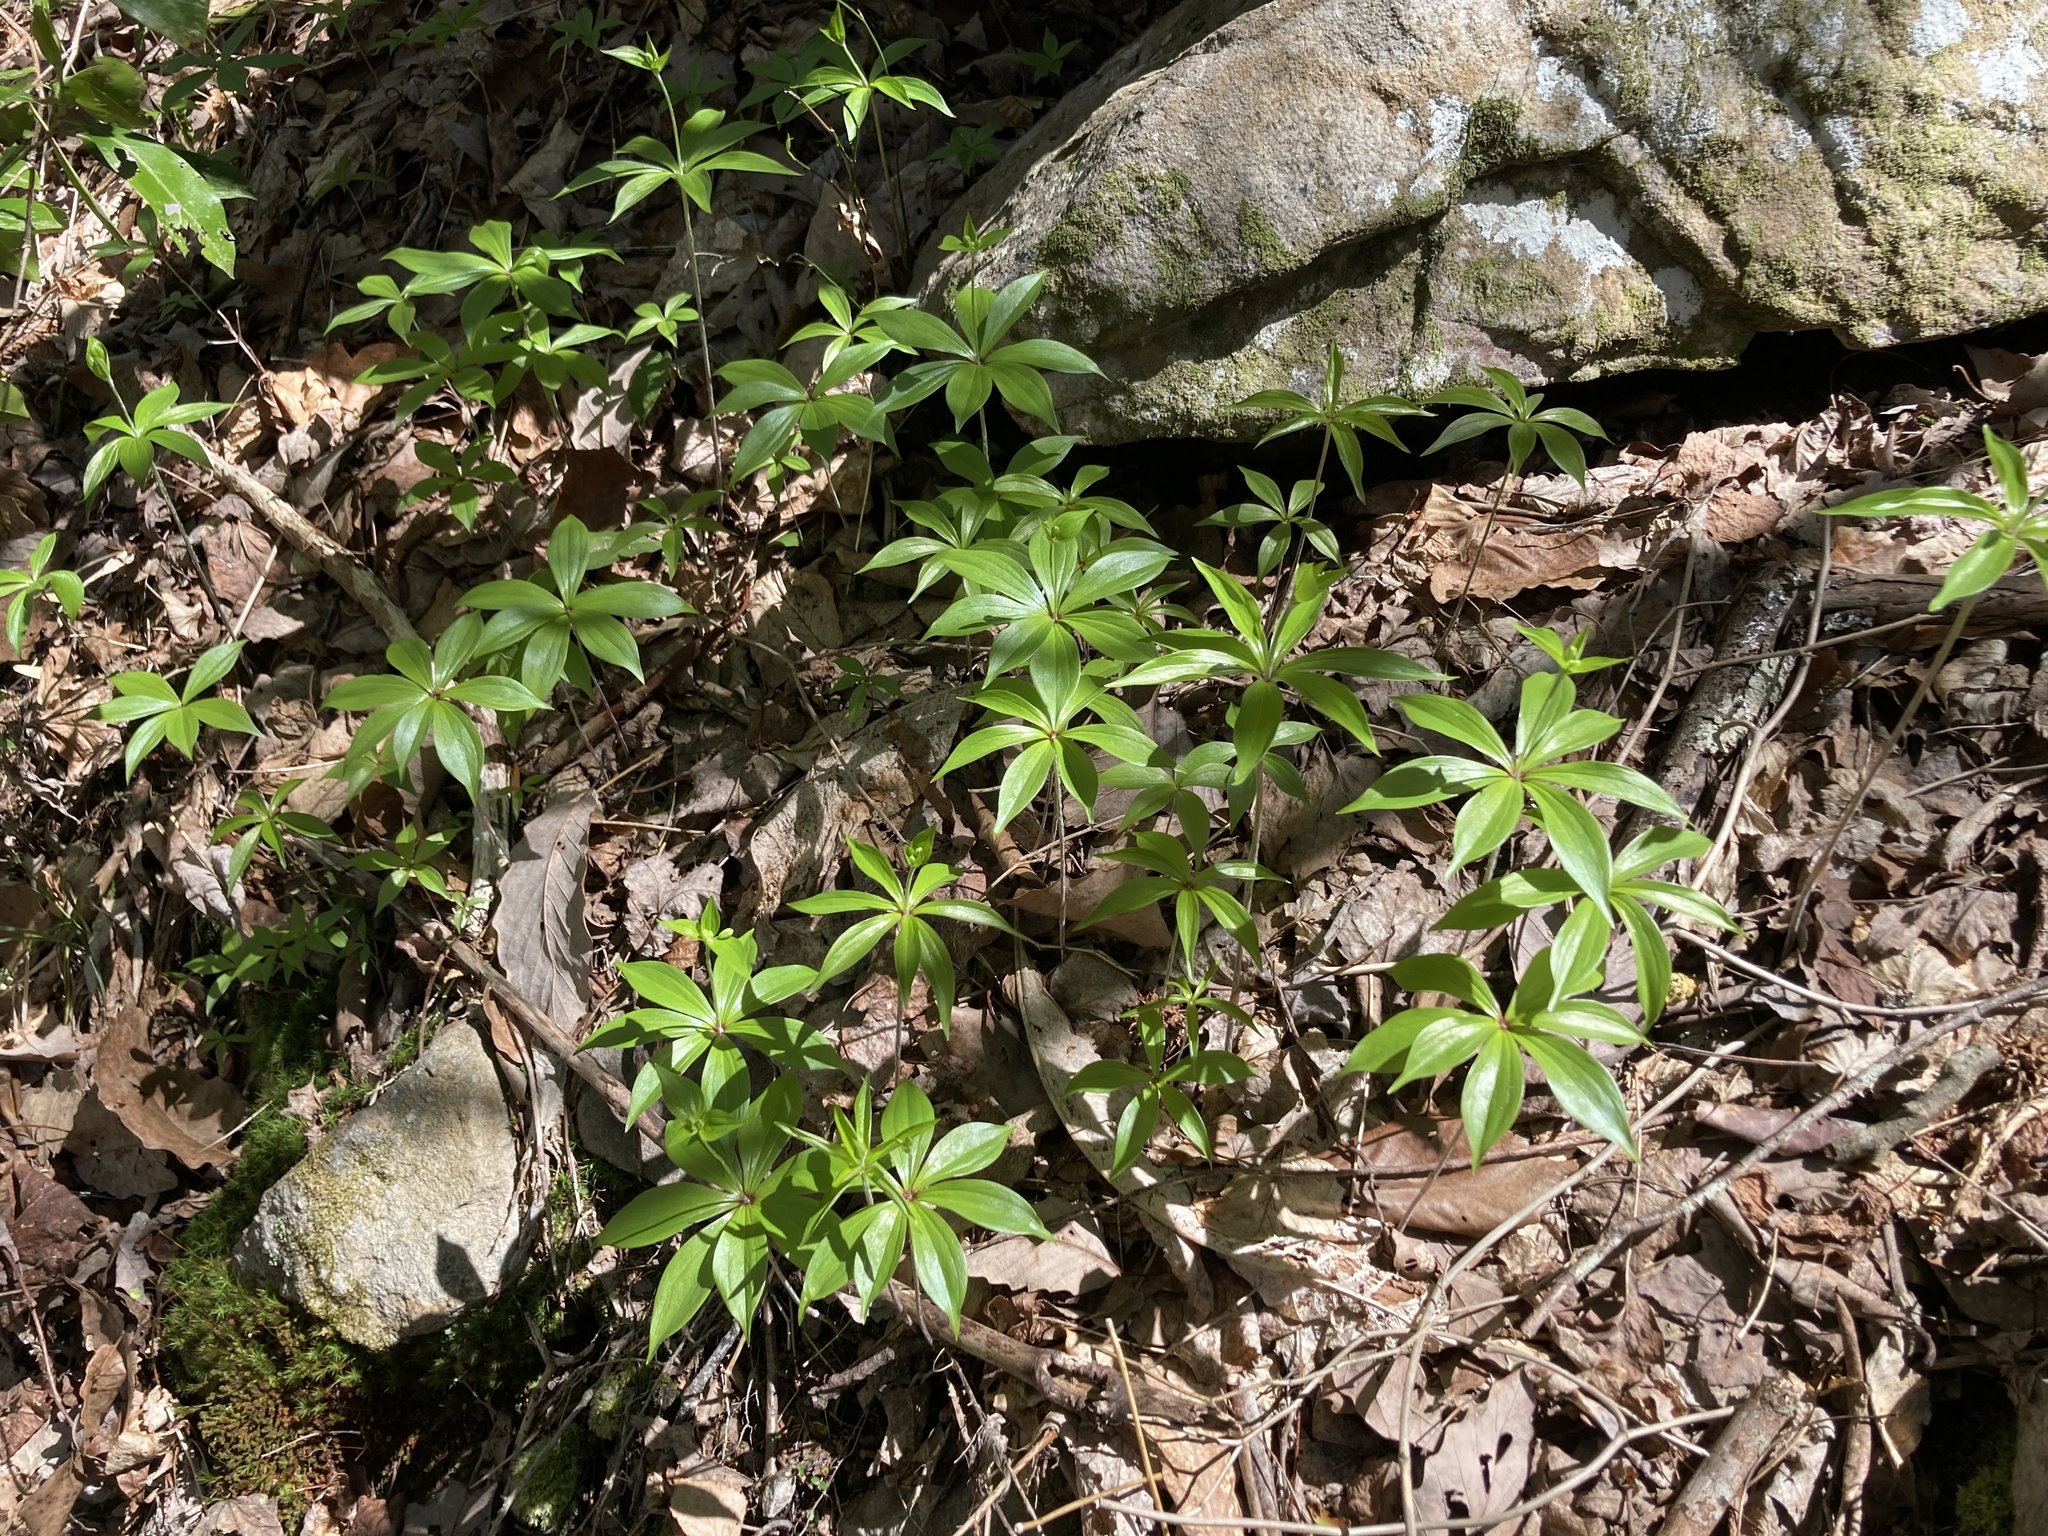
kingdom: Plantae
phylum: Tracheophyta
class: Liliopsida
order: Liliales
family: Liliaceae
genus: Medeola
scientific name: Medeola virginiana
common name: Indian cucumber-root
